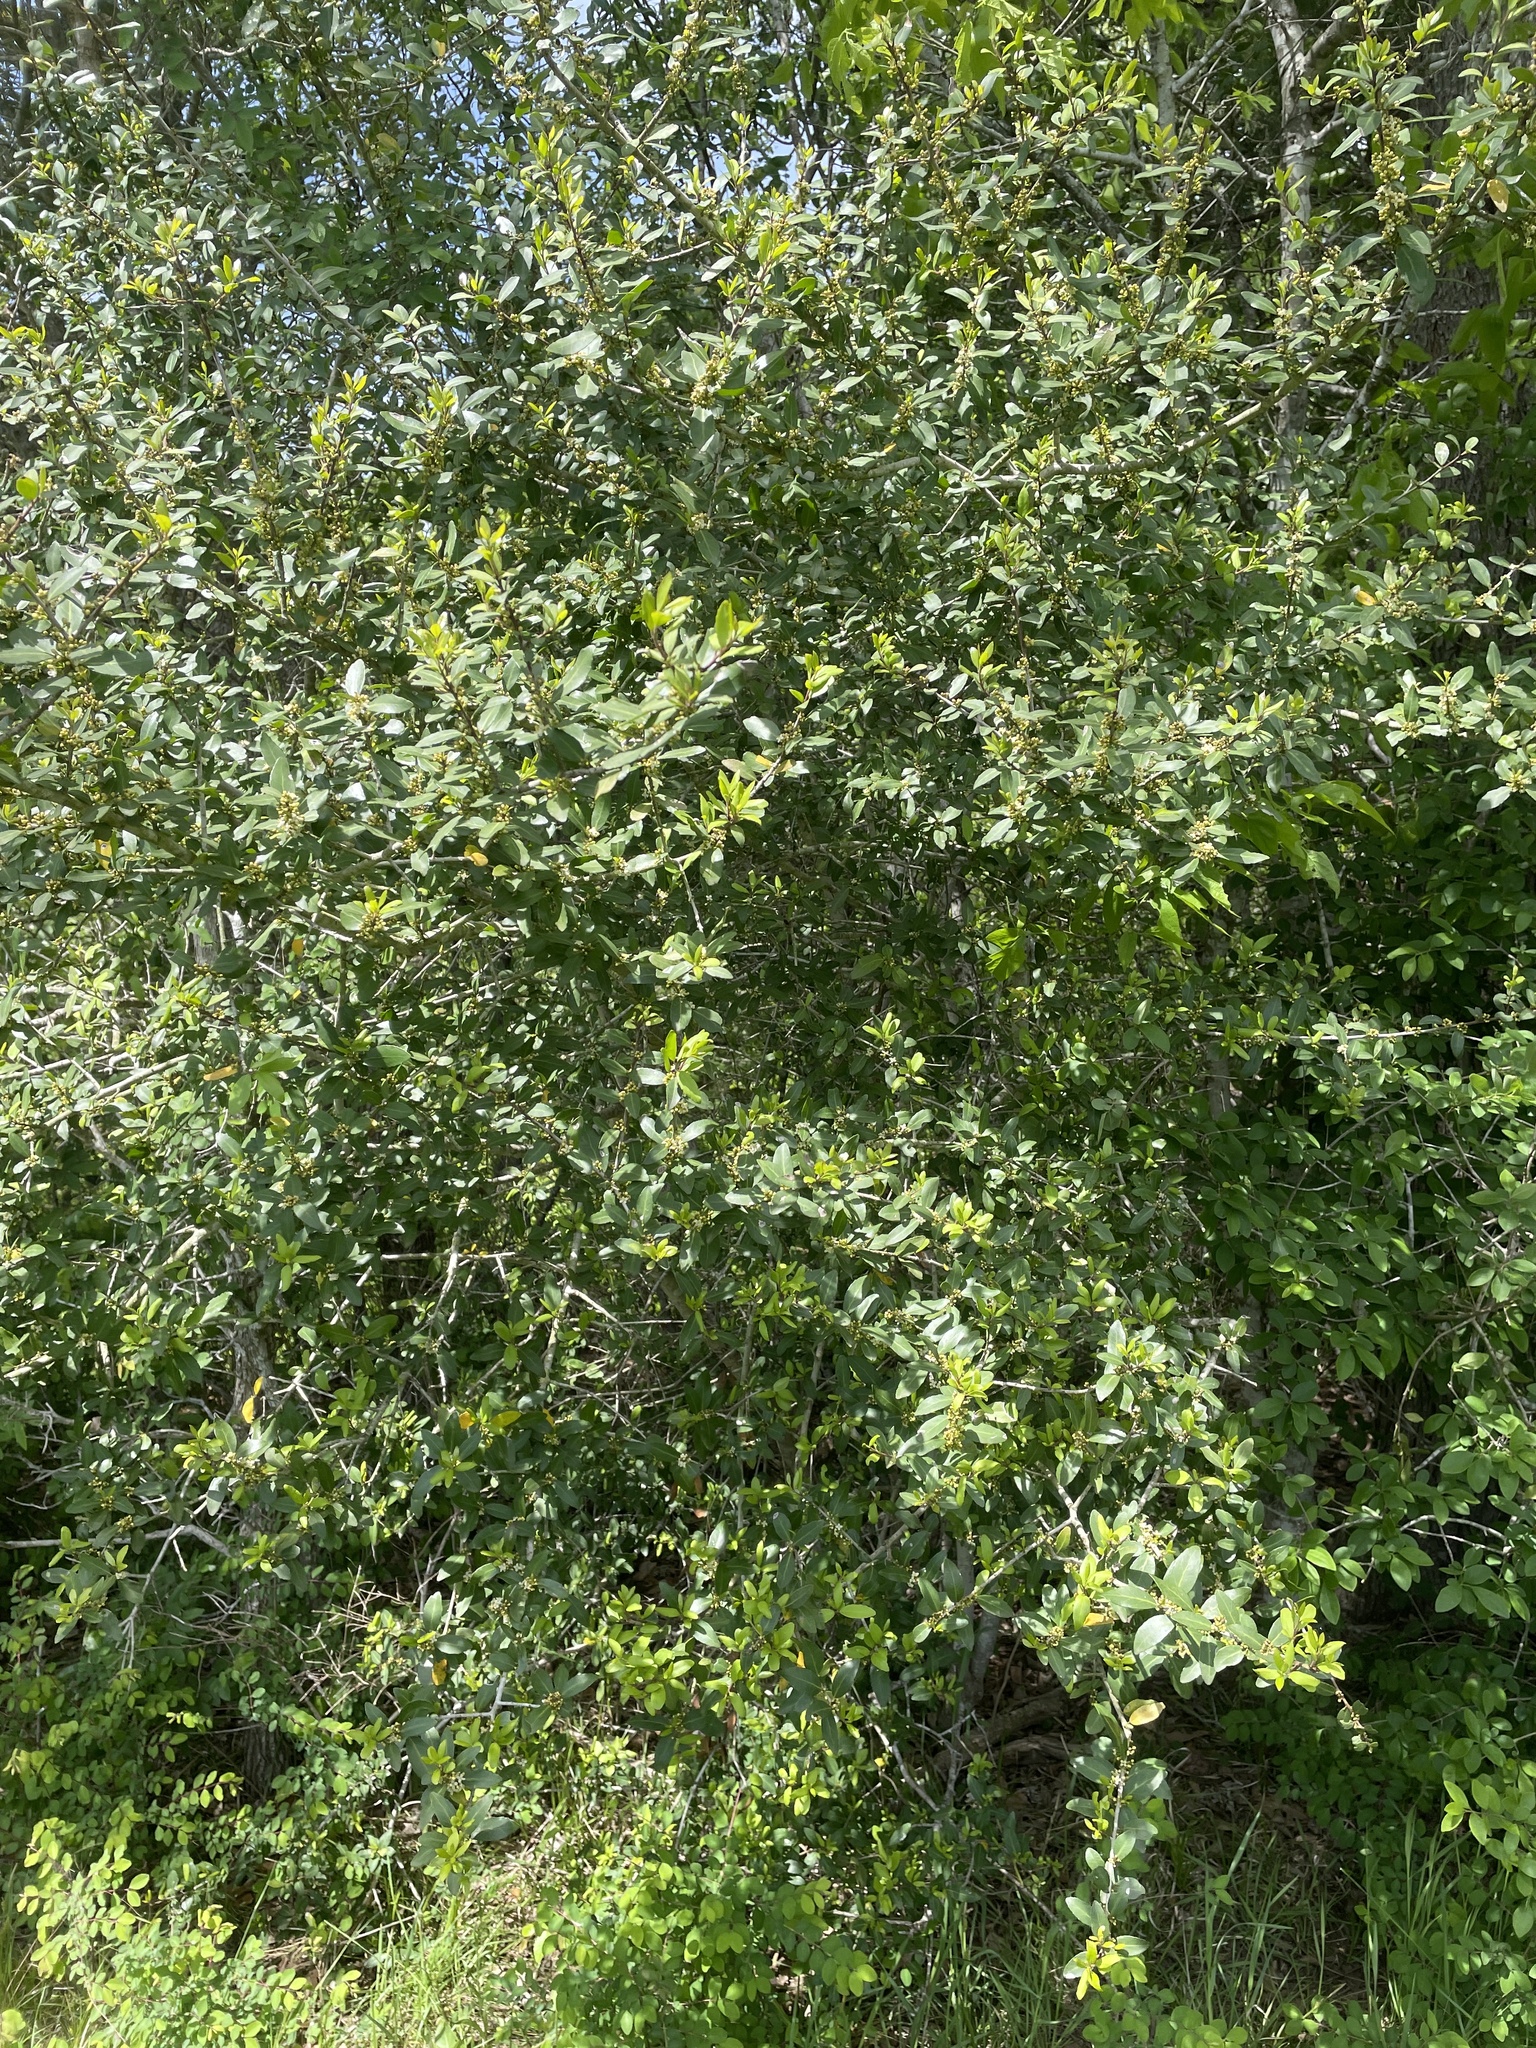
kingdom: Plantae
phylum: Tracheophyta
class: Magnoliopsida
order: Aquifoliales
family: Aquifoliaceae
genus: Ilex
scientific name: Ilex vomitoria
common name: Yaupon holly
